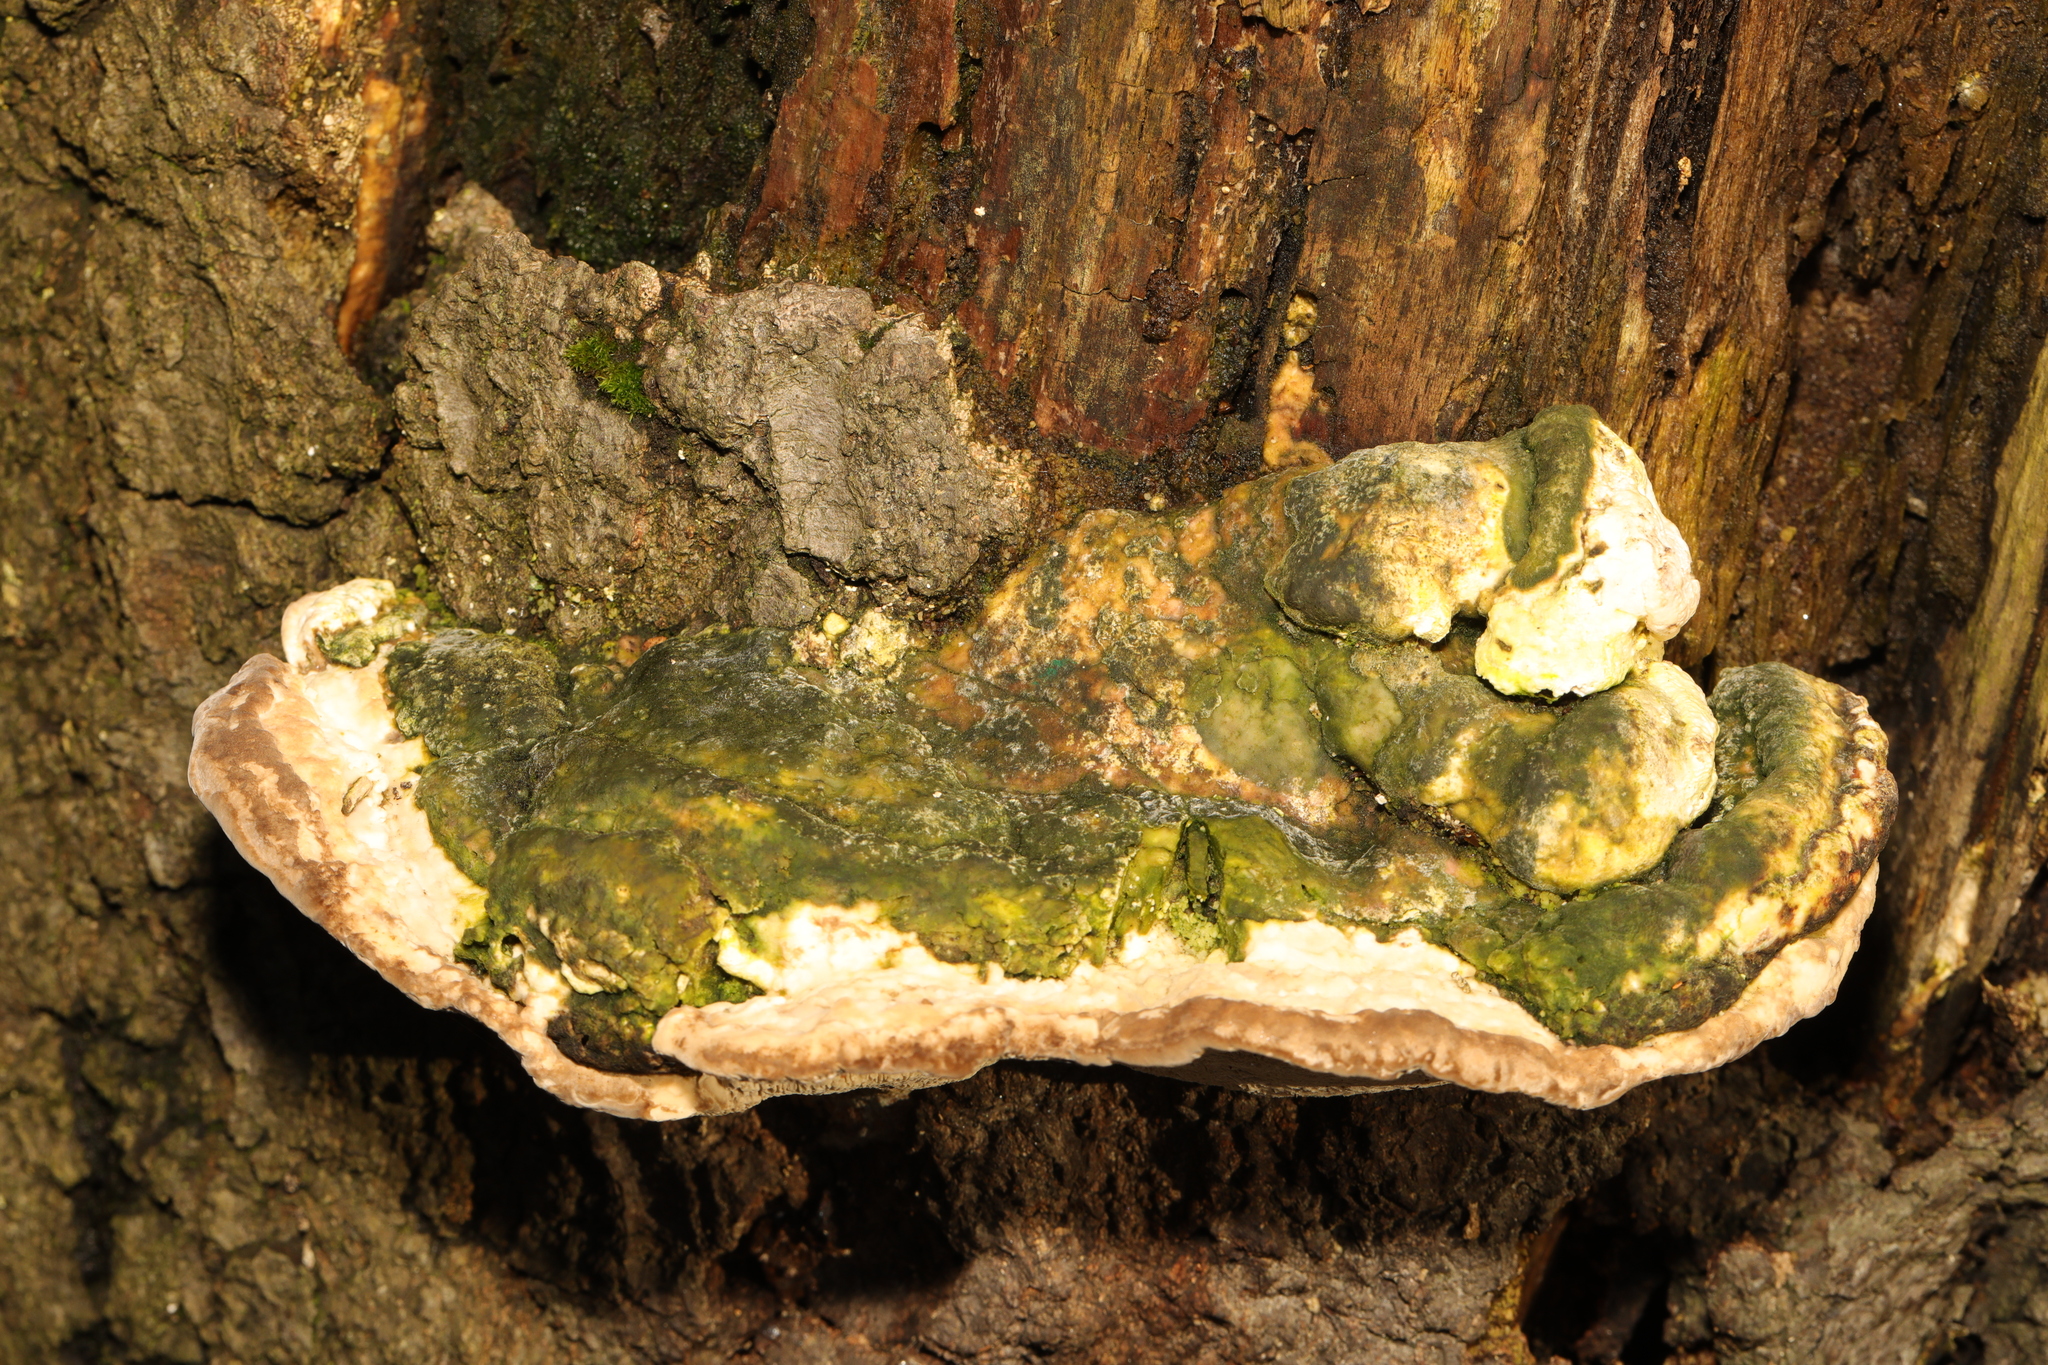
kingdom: Fungi
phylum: Basidiomycota
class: Agaricomycetes
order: Polyporales
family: Polyporaceae
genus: Trametes
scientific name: Trametes gibbosa
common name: Lumpy bracket
